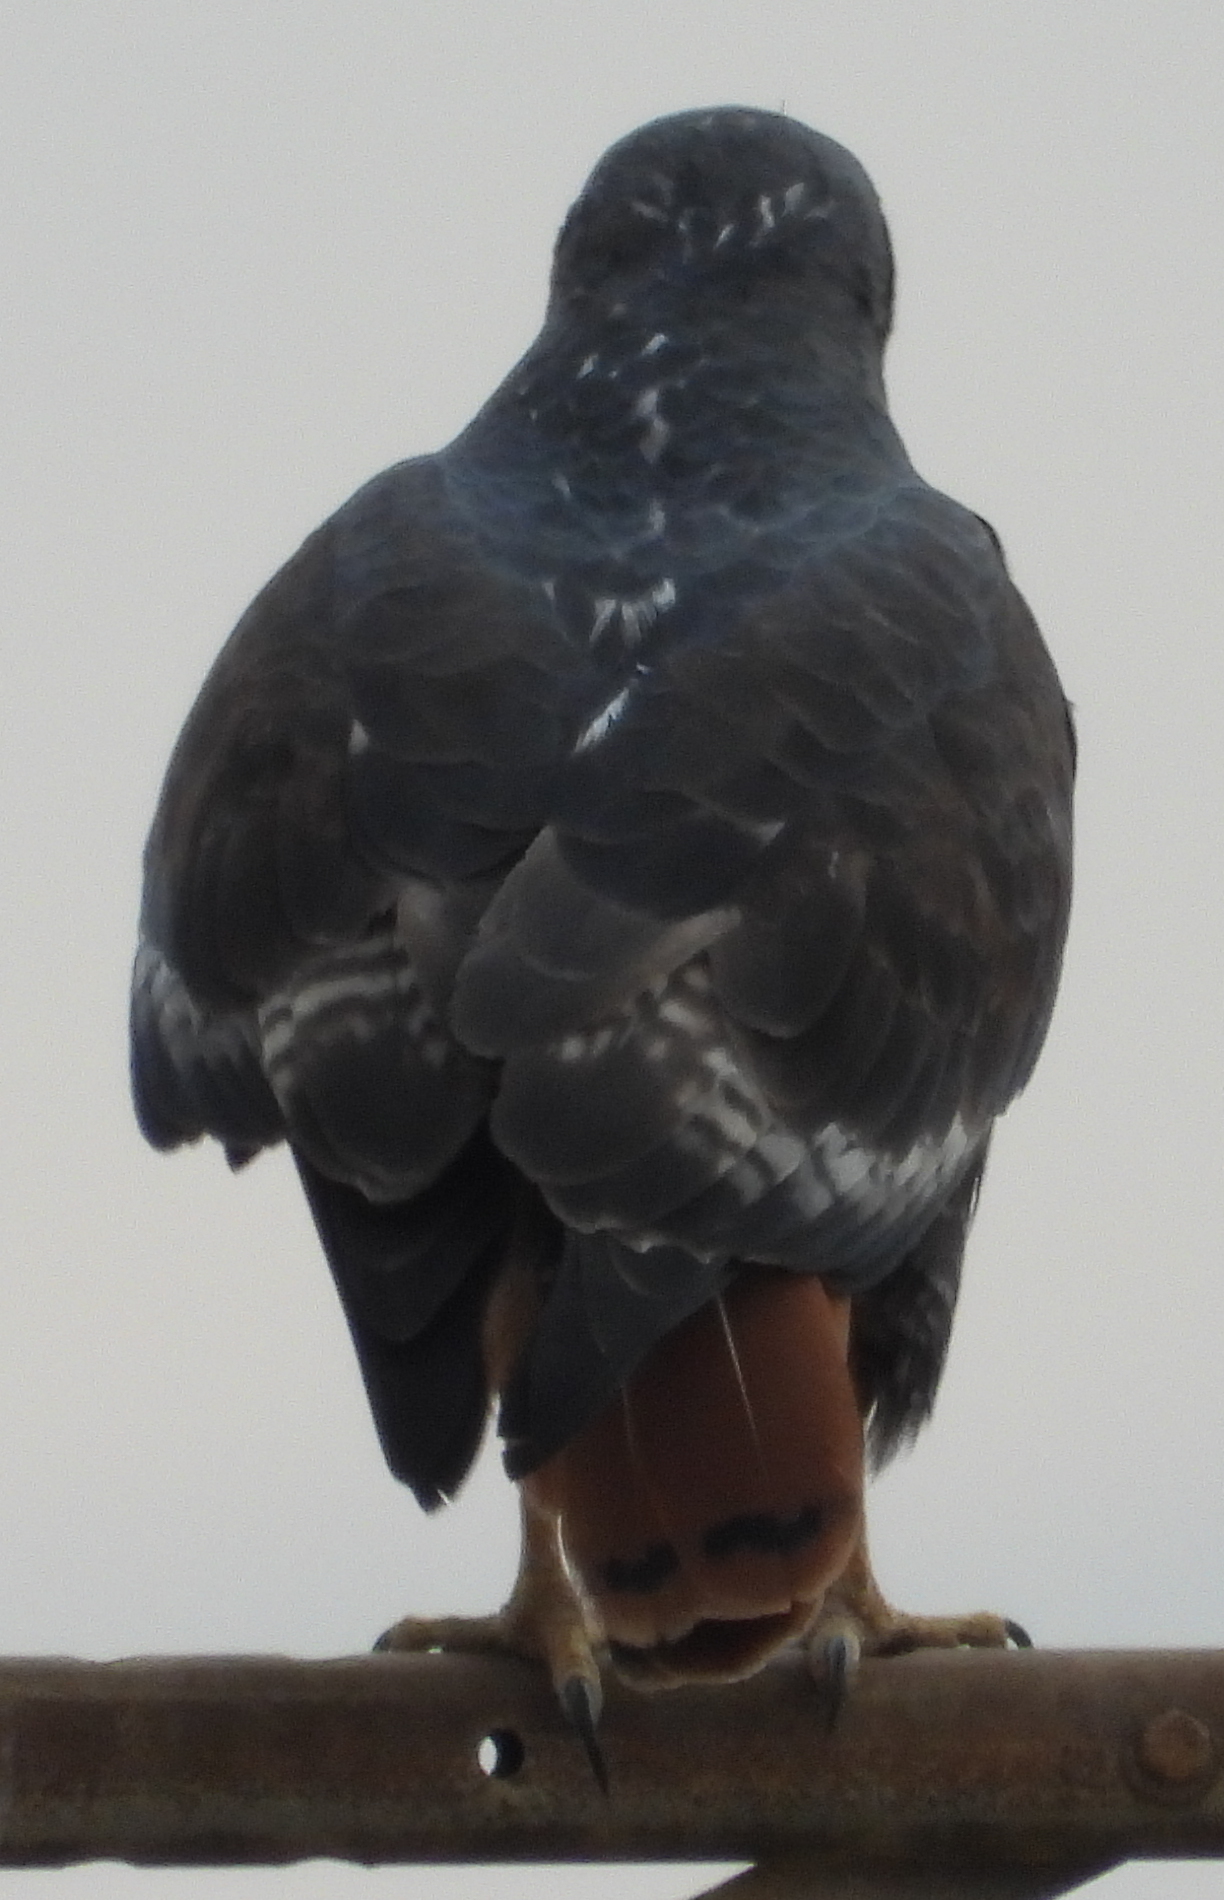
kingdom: Animalia
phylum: Chordata
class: Aves
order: Accipitriformes
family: Accipitridae
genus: Buteo
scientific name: Buteo rufofuscus
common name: Jackal buzzard
